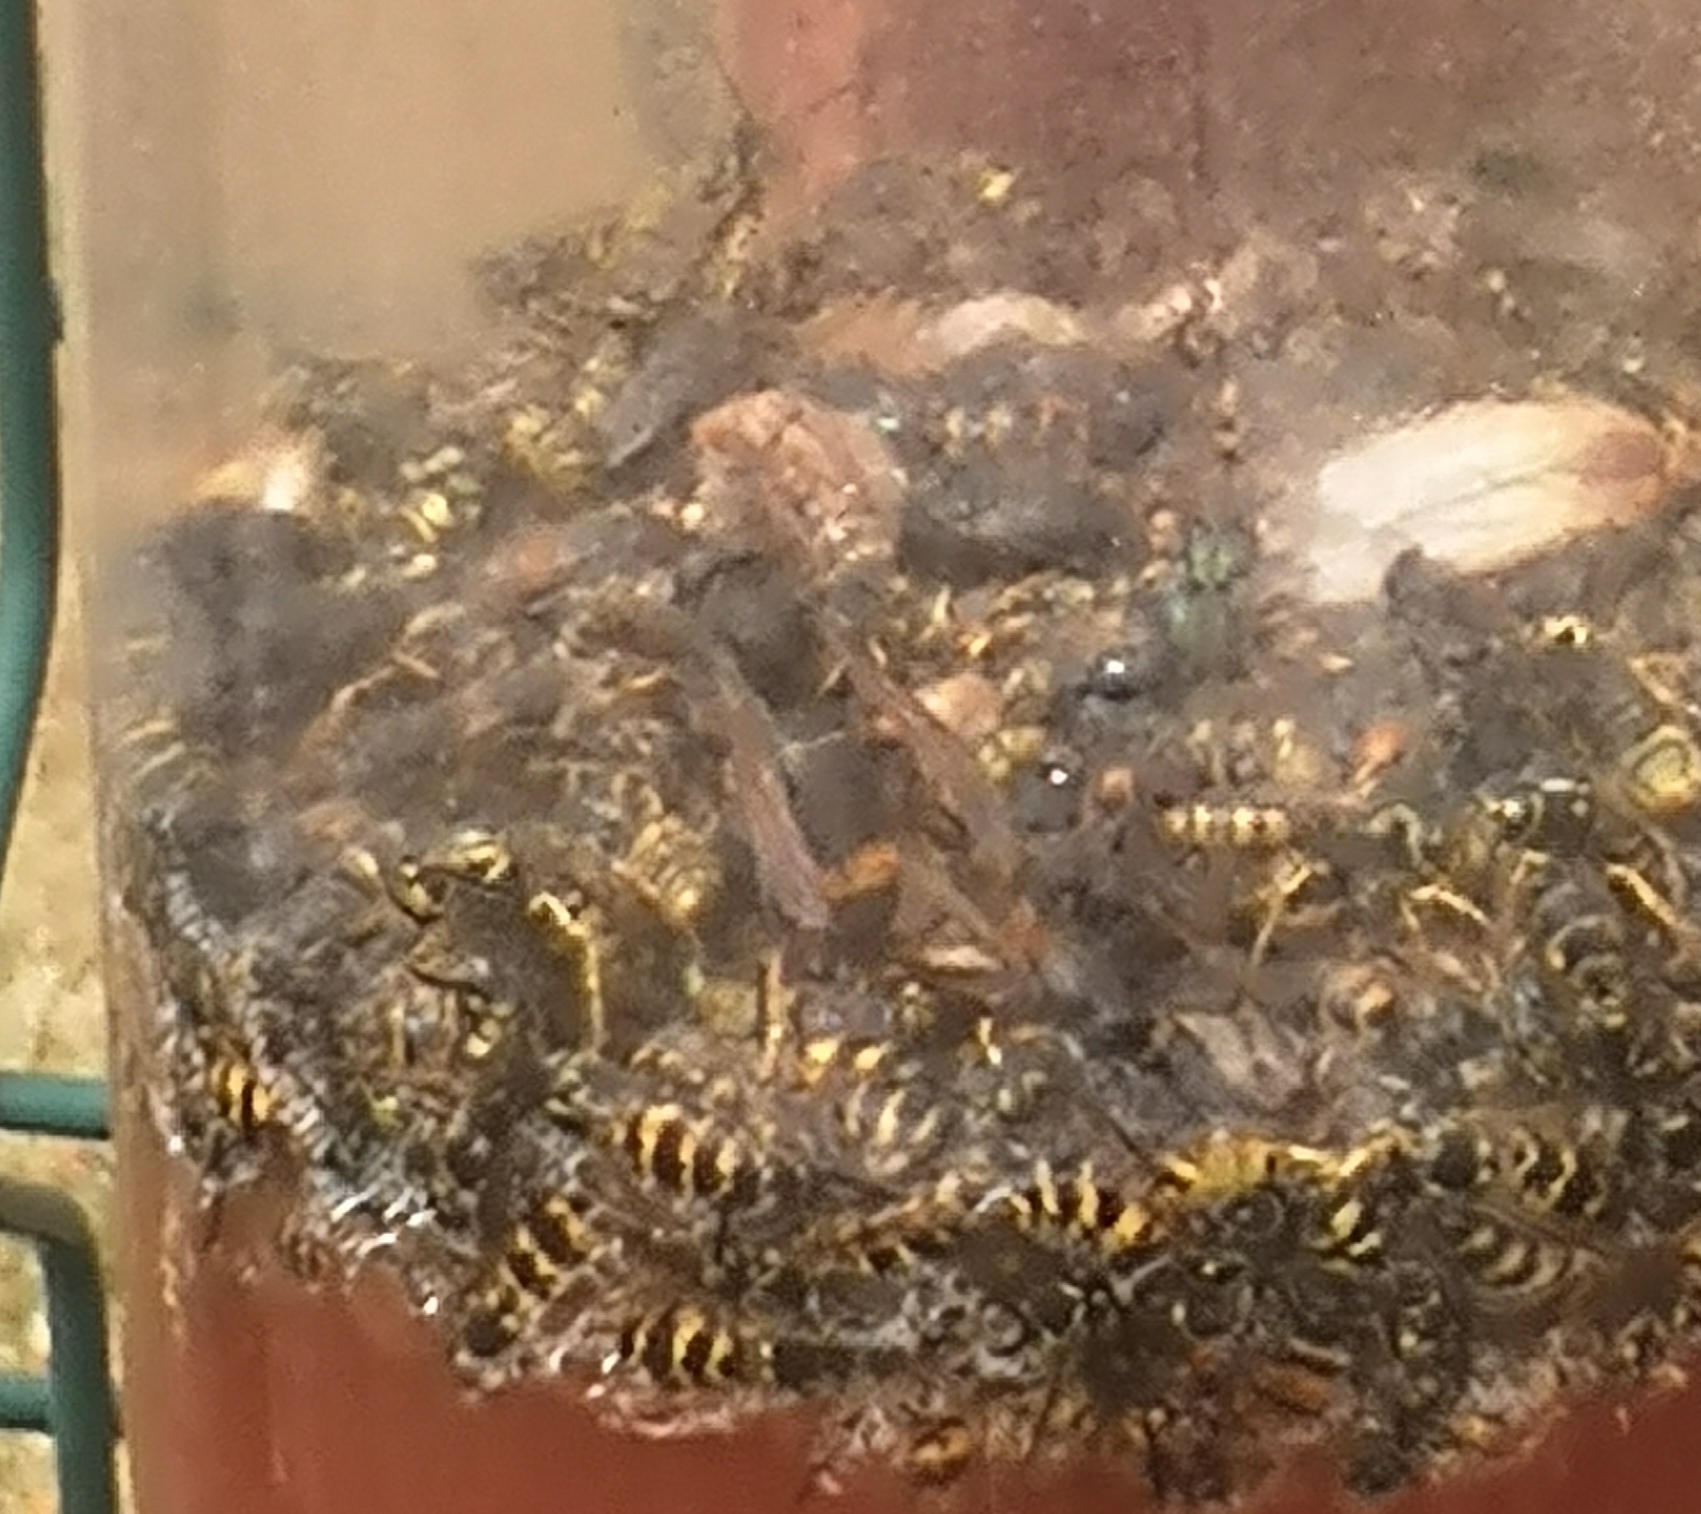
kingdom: Animalia
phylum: Arthropoda
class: Insecta
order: Hymenoptera
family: Vespidae
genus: Vespa
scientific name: Vespa velutina
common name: Asian hornet
